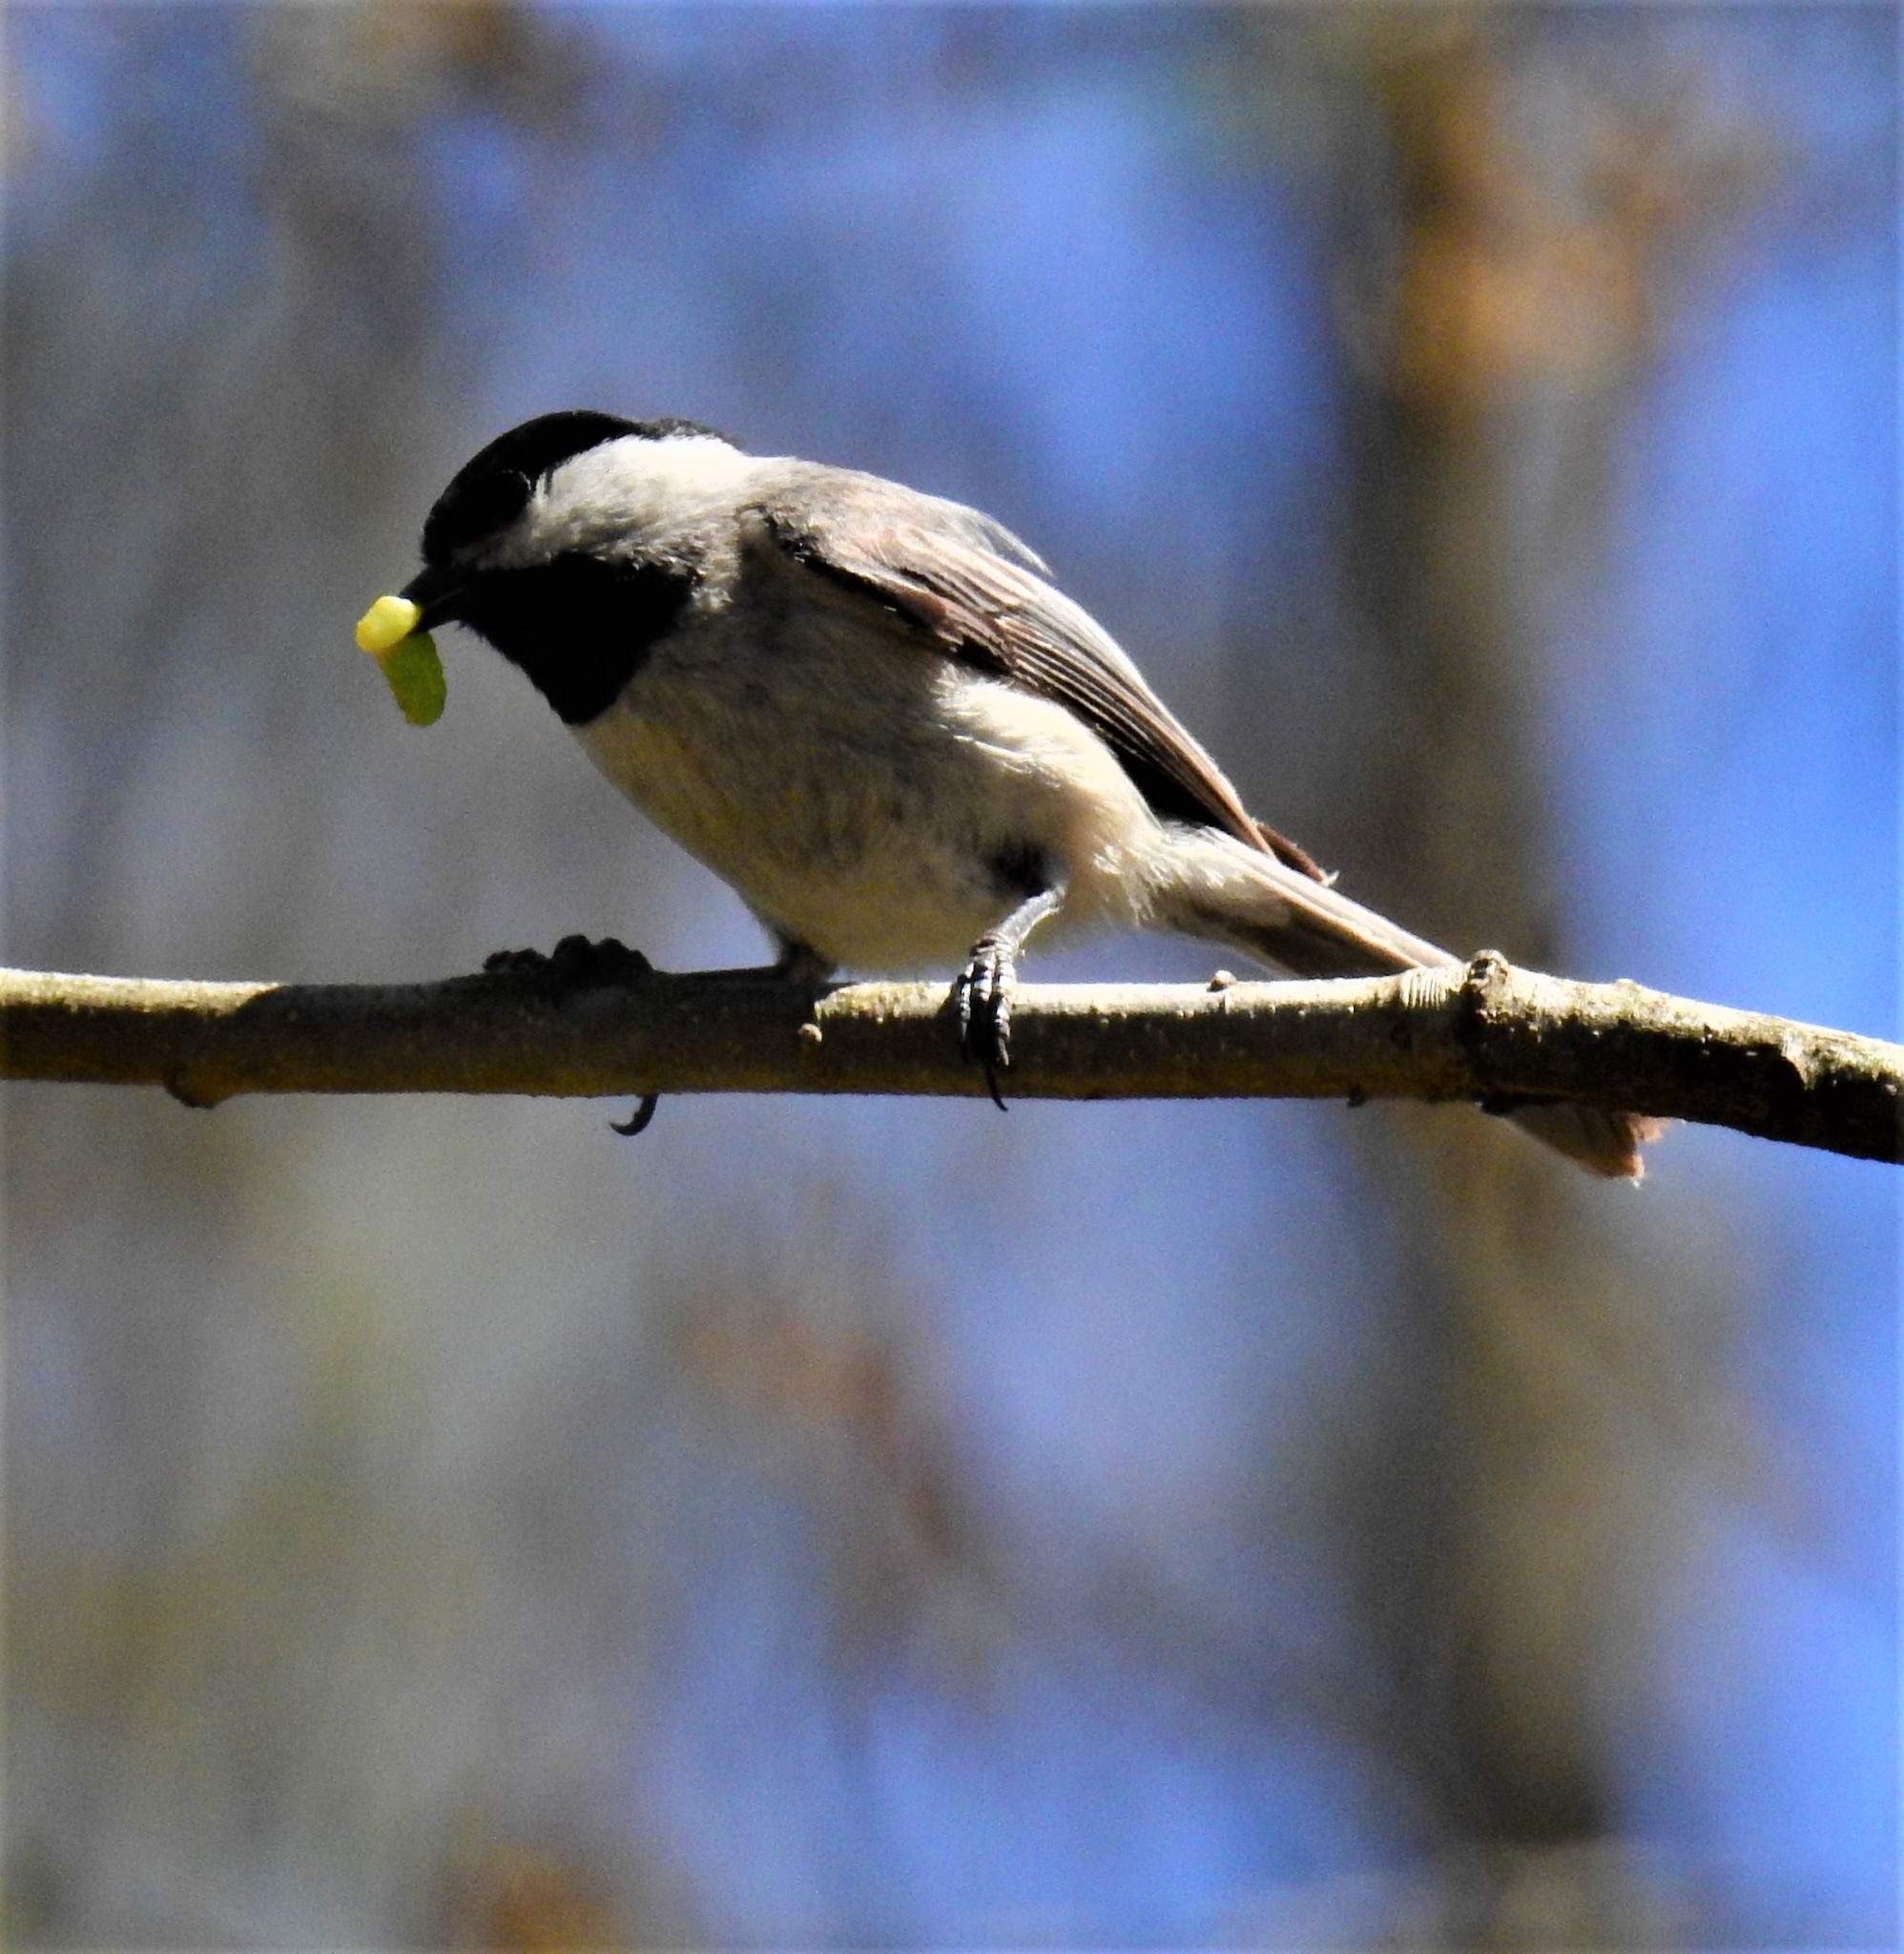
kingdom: Animalia
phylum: Chordata
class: Aves
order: Passeriformes
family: Paridae
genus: Poecile
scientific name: Poecile carolinensis
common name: Carolina chickadee
